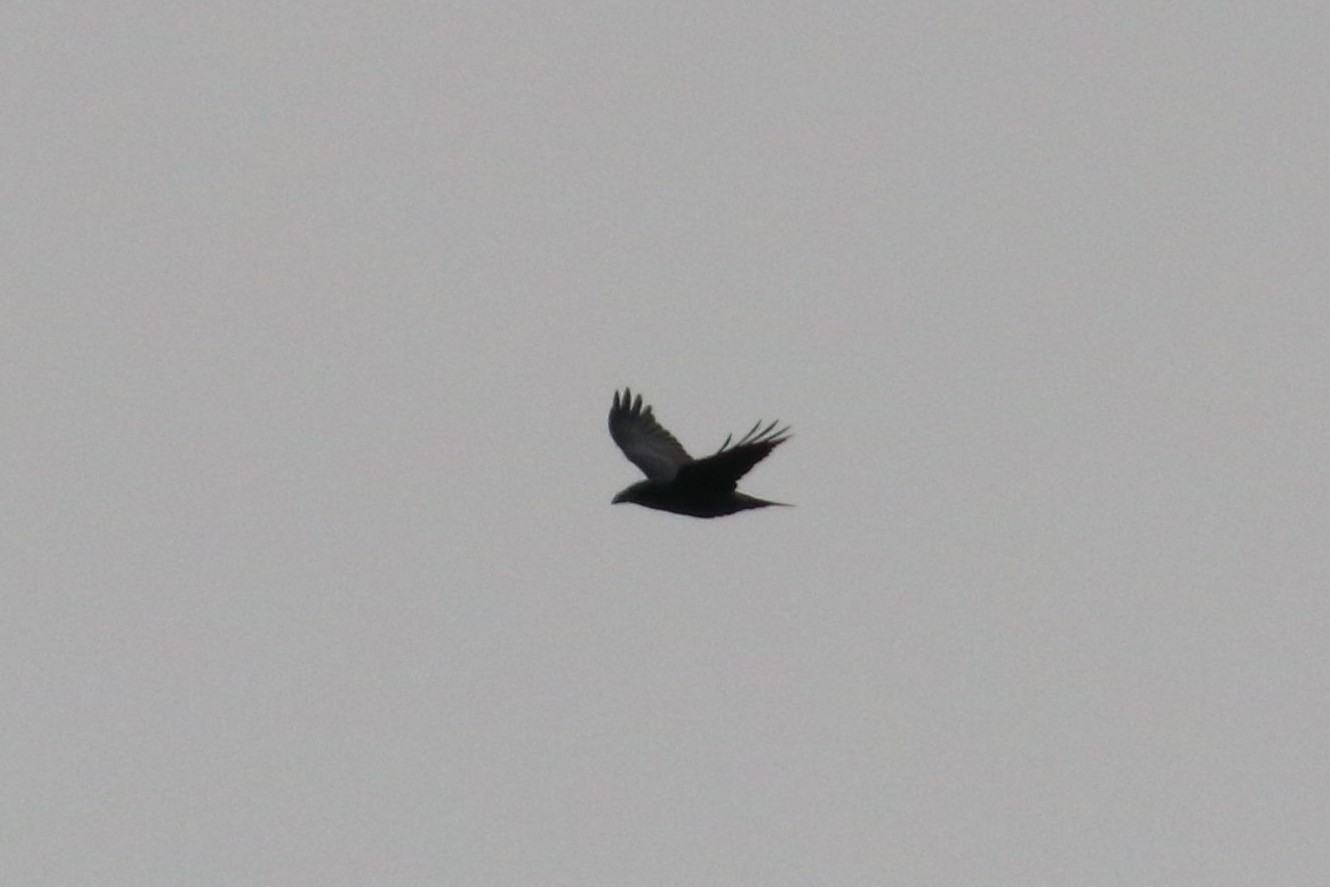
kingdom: Animalia
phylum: Chordata
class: Aves
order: Passeriformes
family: Corvidae
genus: Corvus
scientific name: Corvus corax
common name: Common raven
